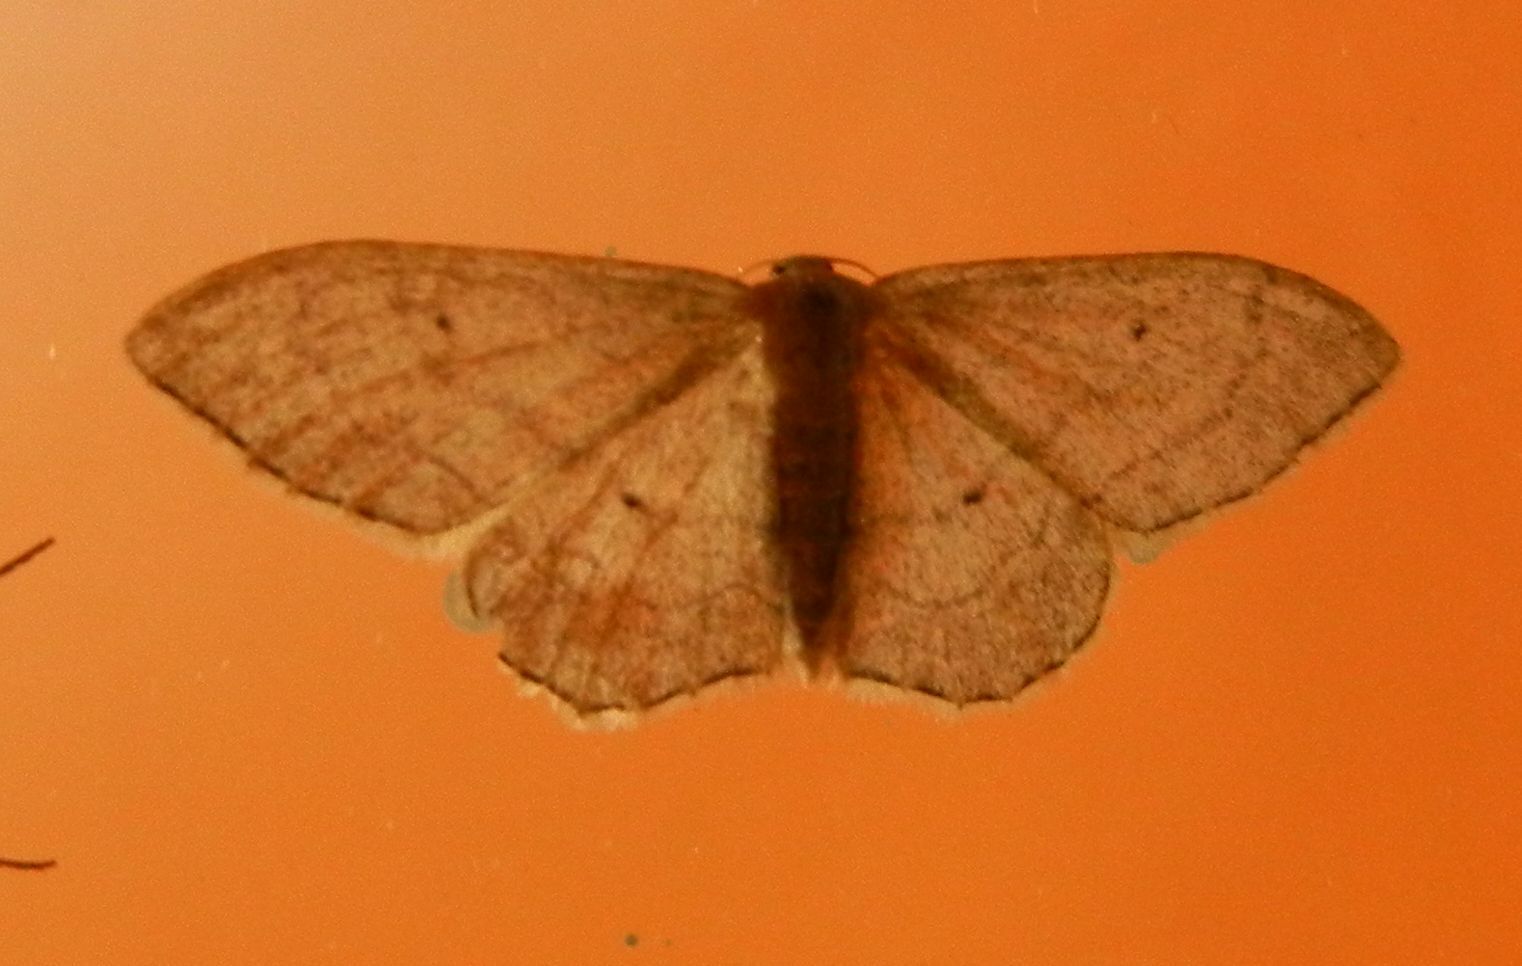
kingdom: Animalia
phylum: Arthropoda
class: Insecta
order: Lepidoptera
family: Geometridae
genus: Idaea
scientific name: Idaea aversata
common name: Riband wave
